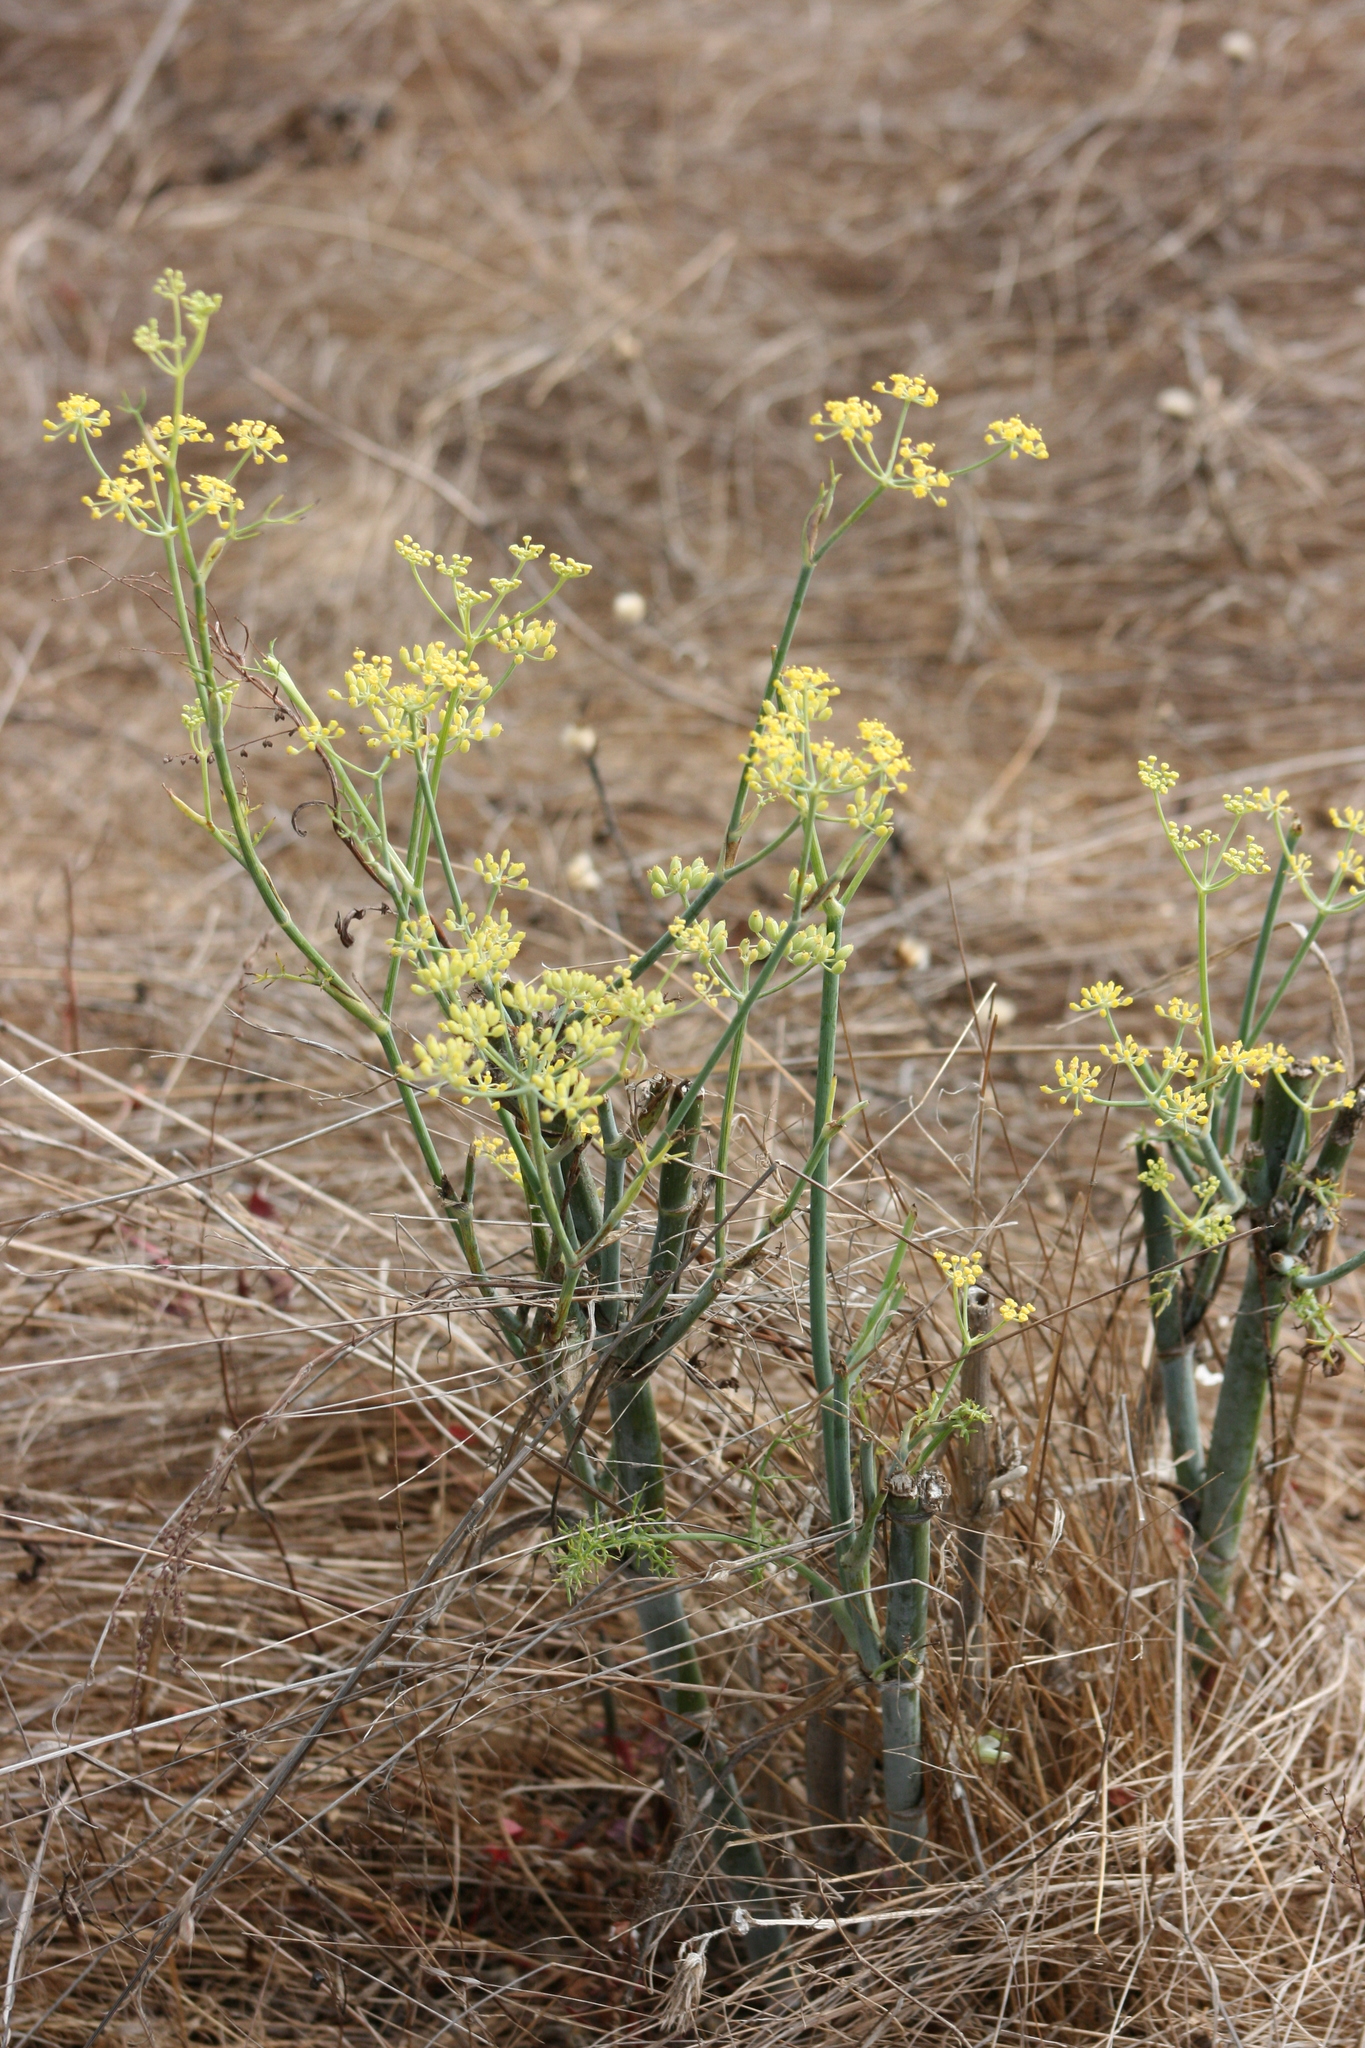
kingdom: Plantae
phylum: Tracheophyta
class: Magnoliopsida
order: Apiales
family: Apiaceae
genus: Foeniculum
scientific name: Foeniculum vulgare
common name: Fennel
